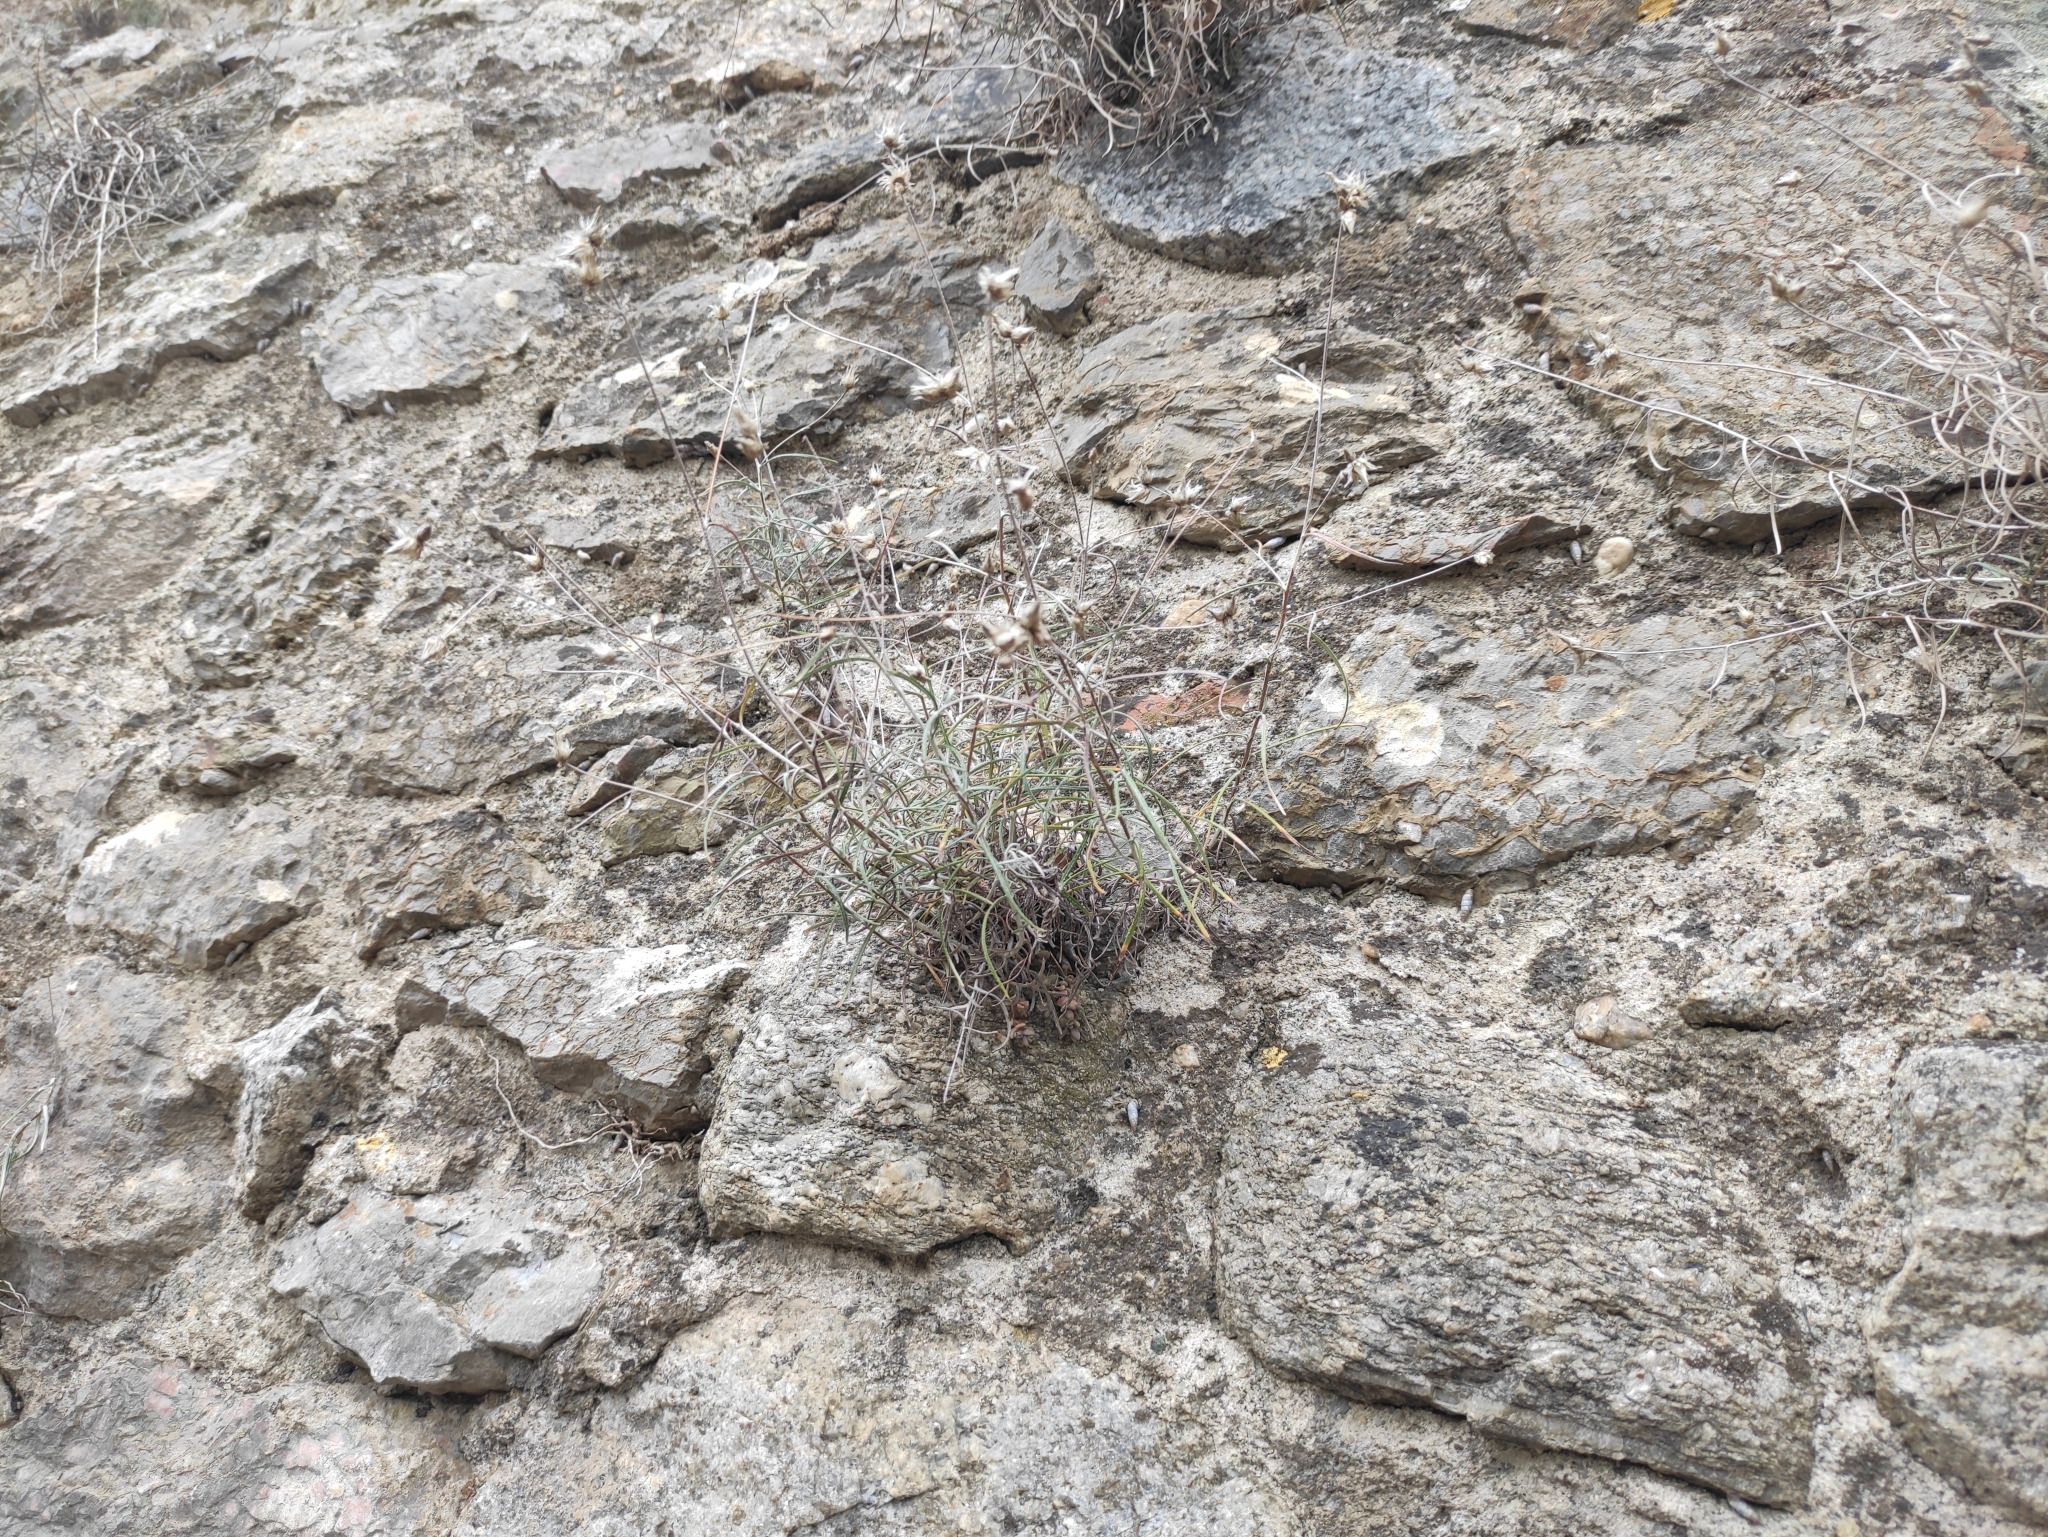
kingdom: Plantae
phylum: Tracheophyta
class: Magnoliopsida
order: Asterales
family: Asteraceae
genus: Phagnalon
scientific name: Phagnalon sordidum
